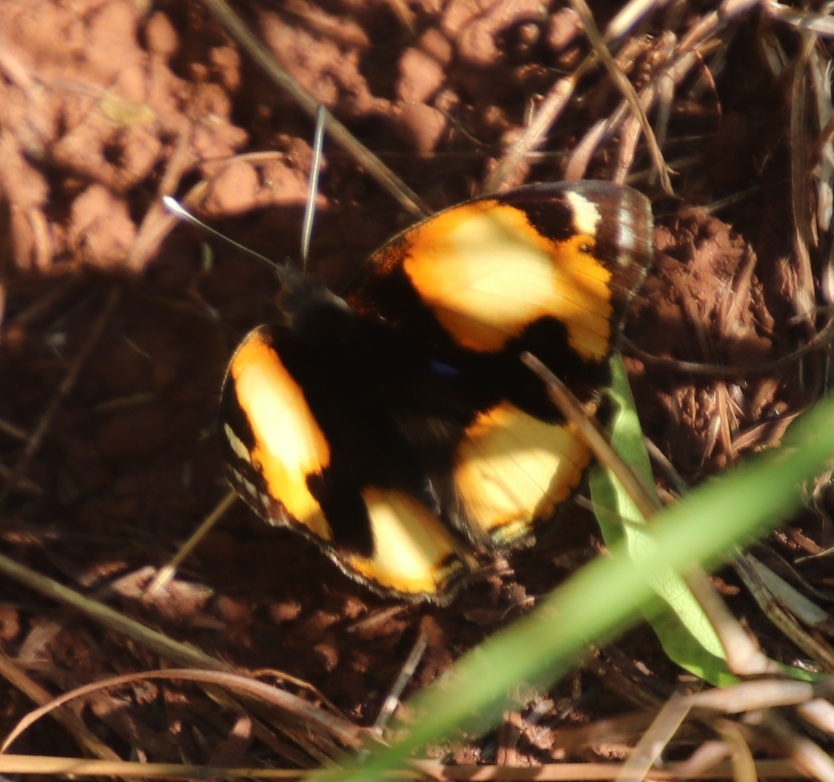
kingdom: Animalia
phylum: Arthropoda
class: Insecta
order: Lepidoptera
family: Nymphalidae
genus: Junonia
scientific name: Junonia hierta
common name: Yellow pansy
